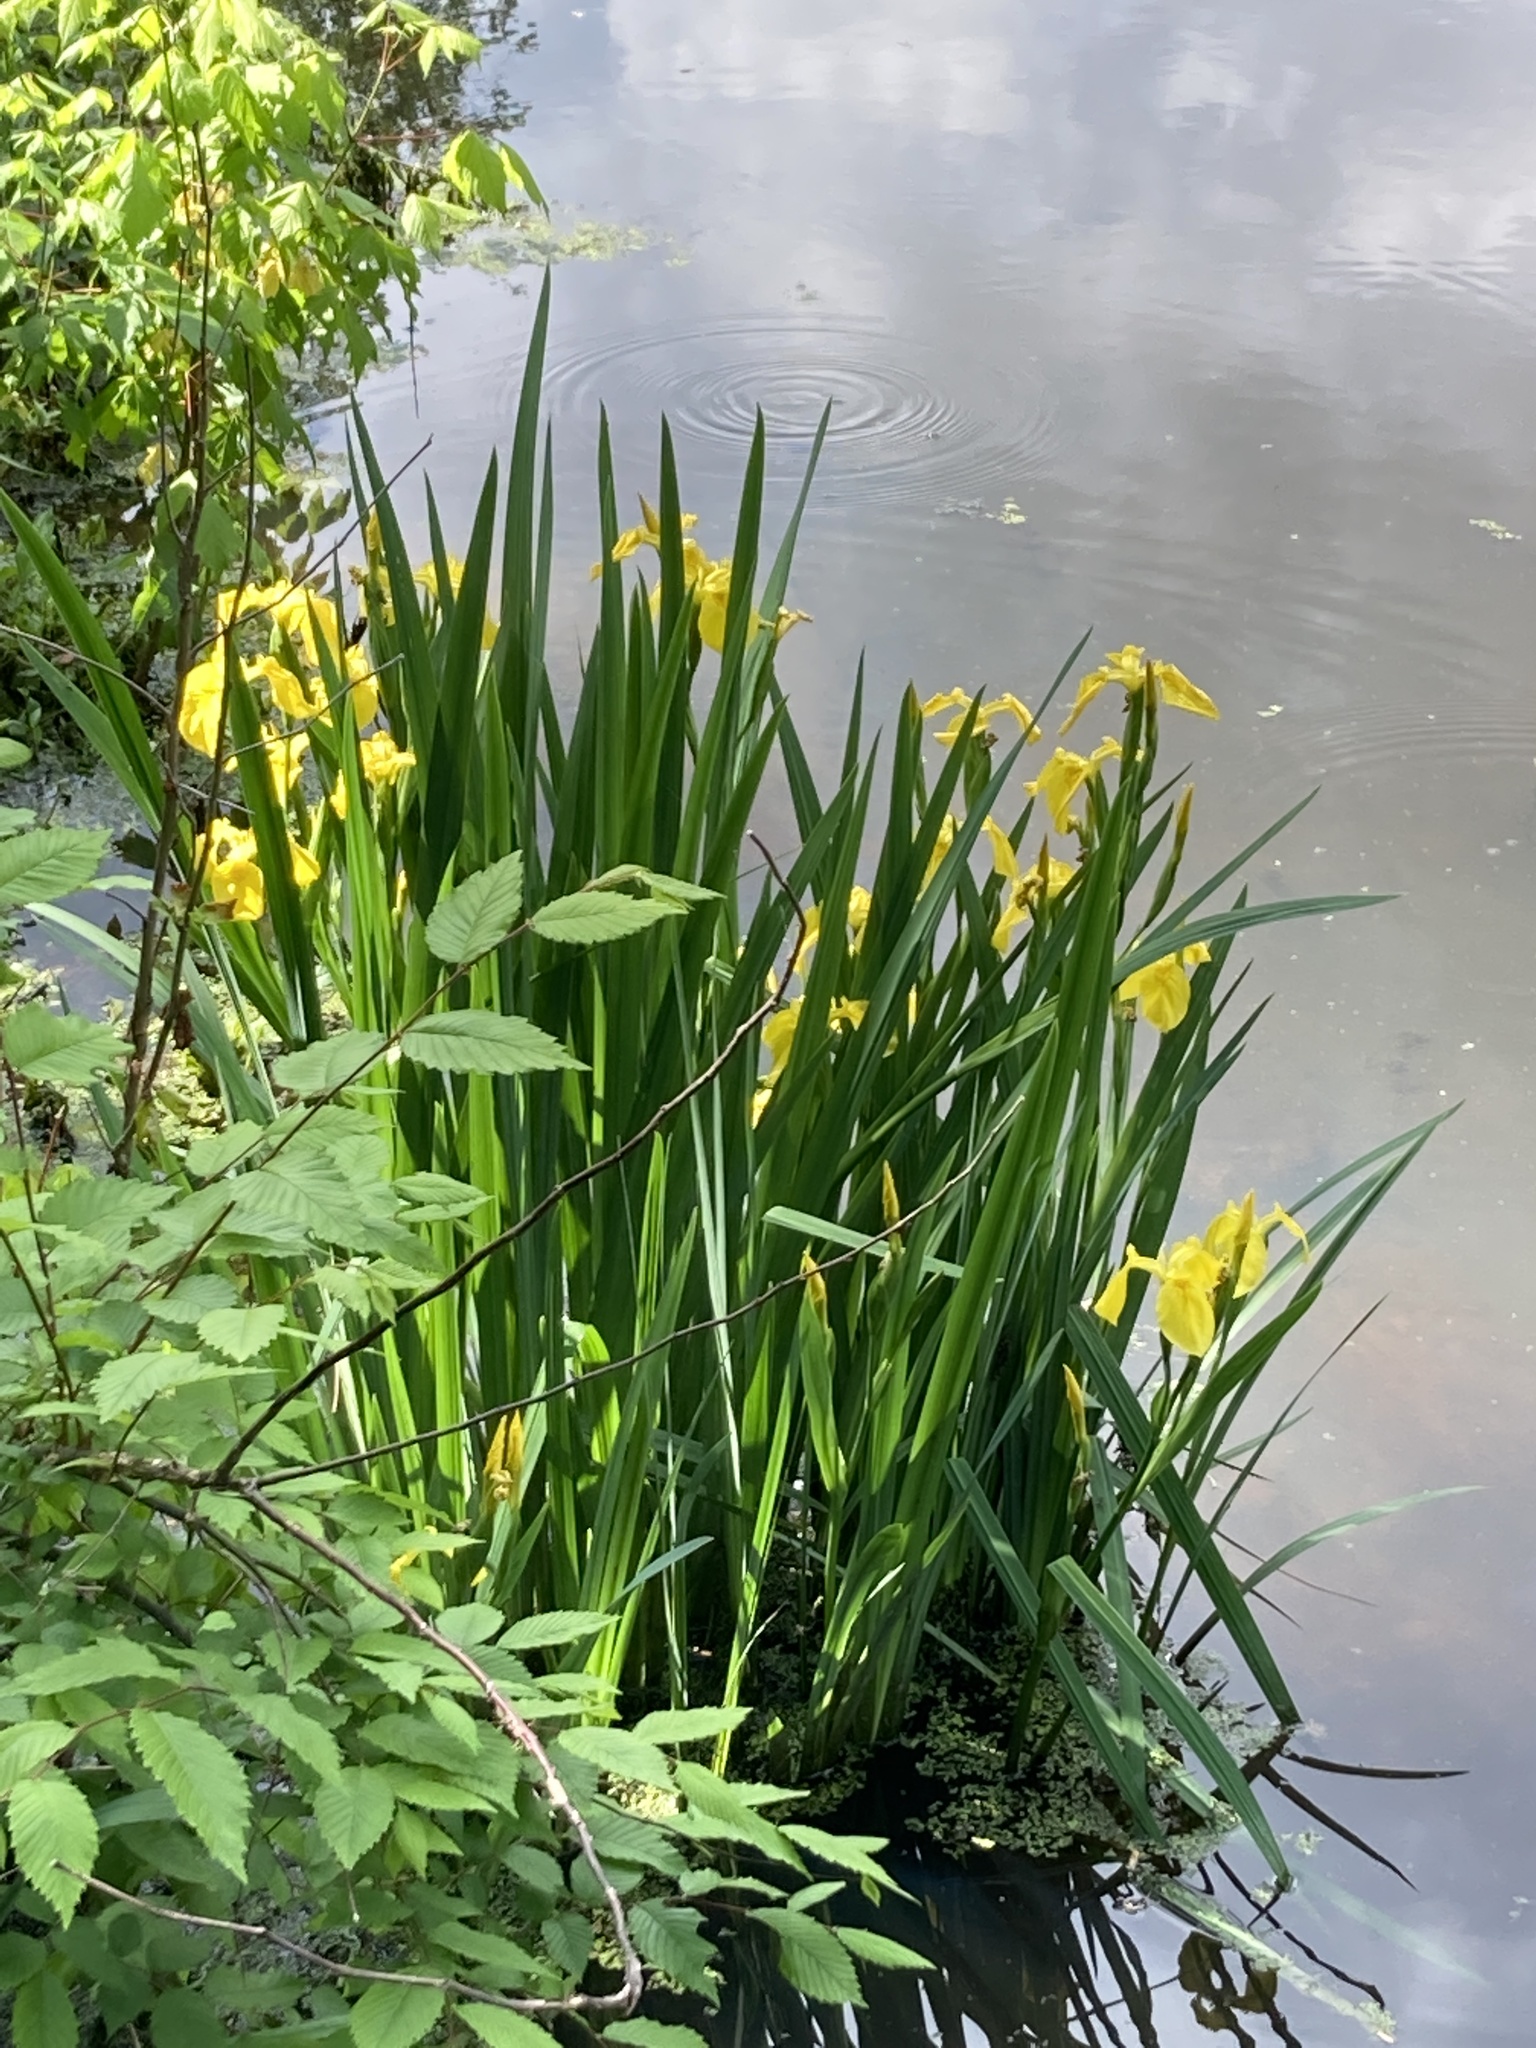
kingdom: Plantae
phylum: Tracheophyta
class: Liliopsida
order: Asparagales
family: Iridaceae
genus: Iris
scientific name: Iris pseudacorus
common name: Yellow flag
